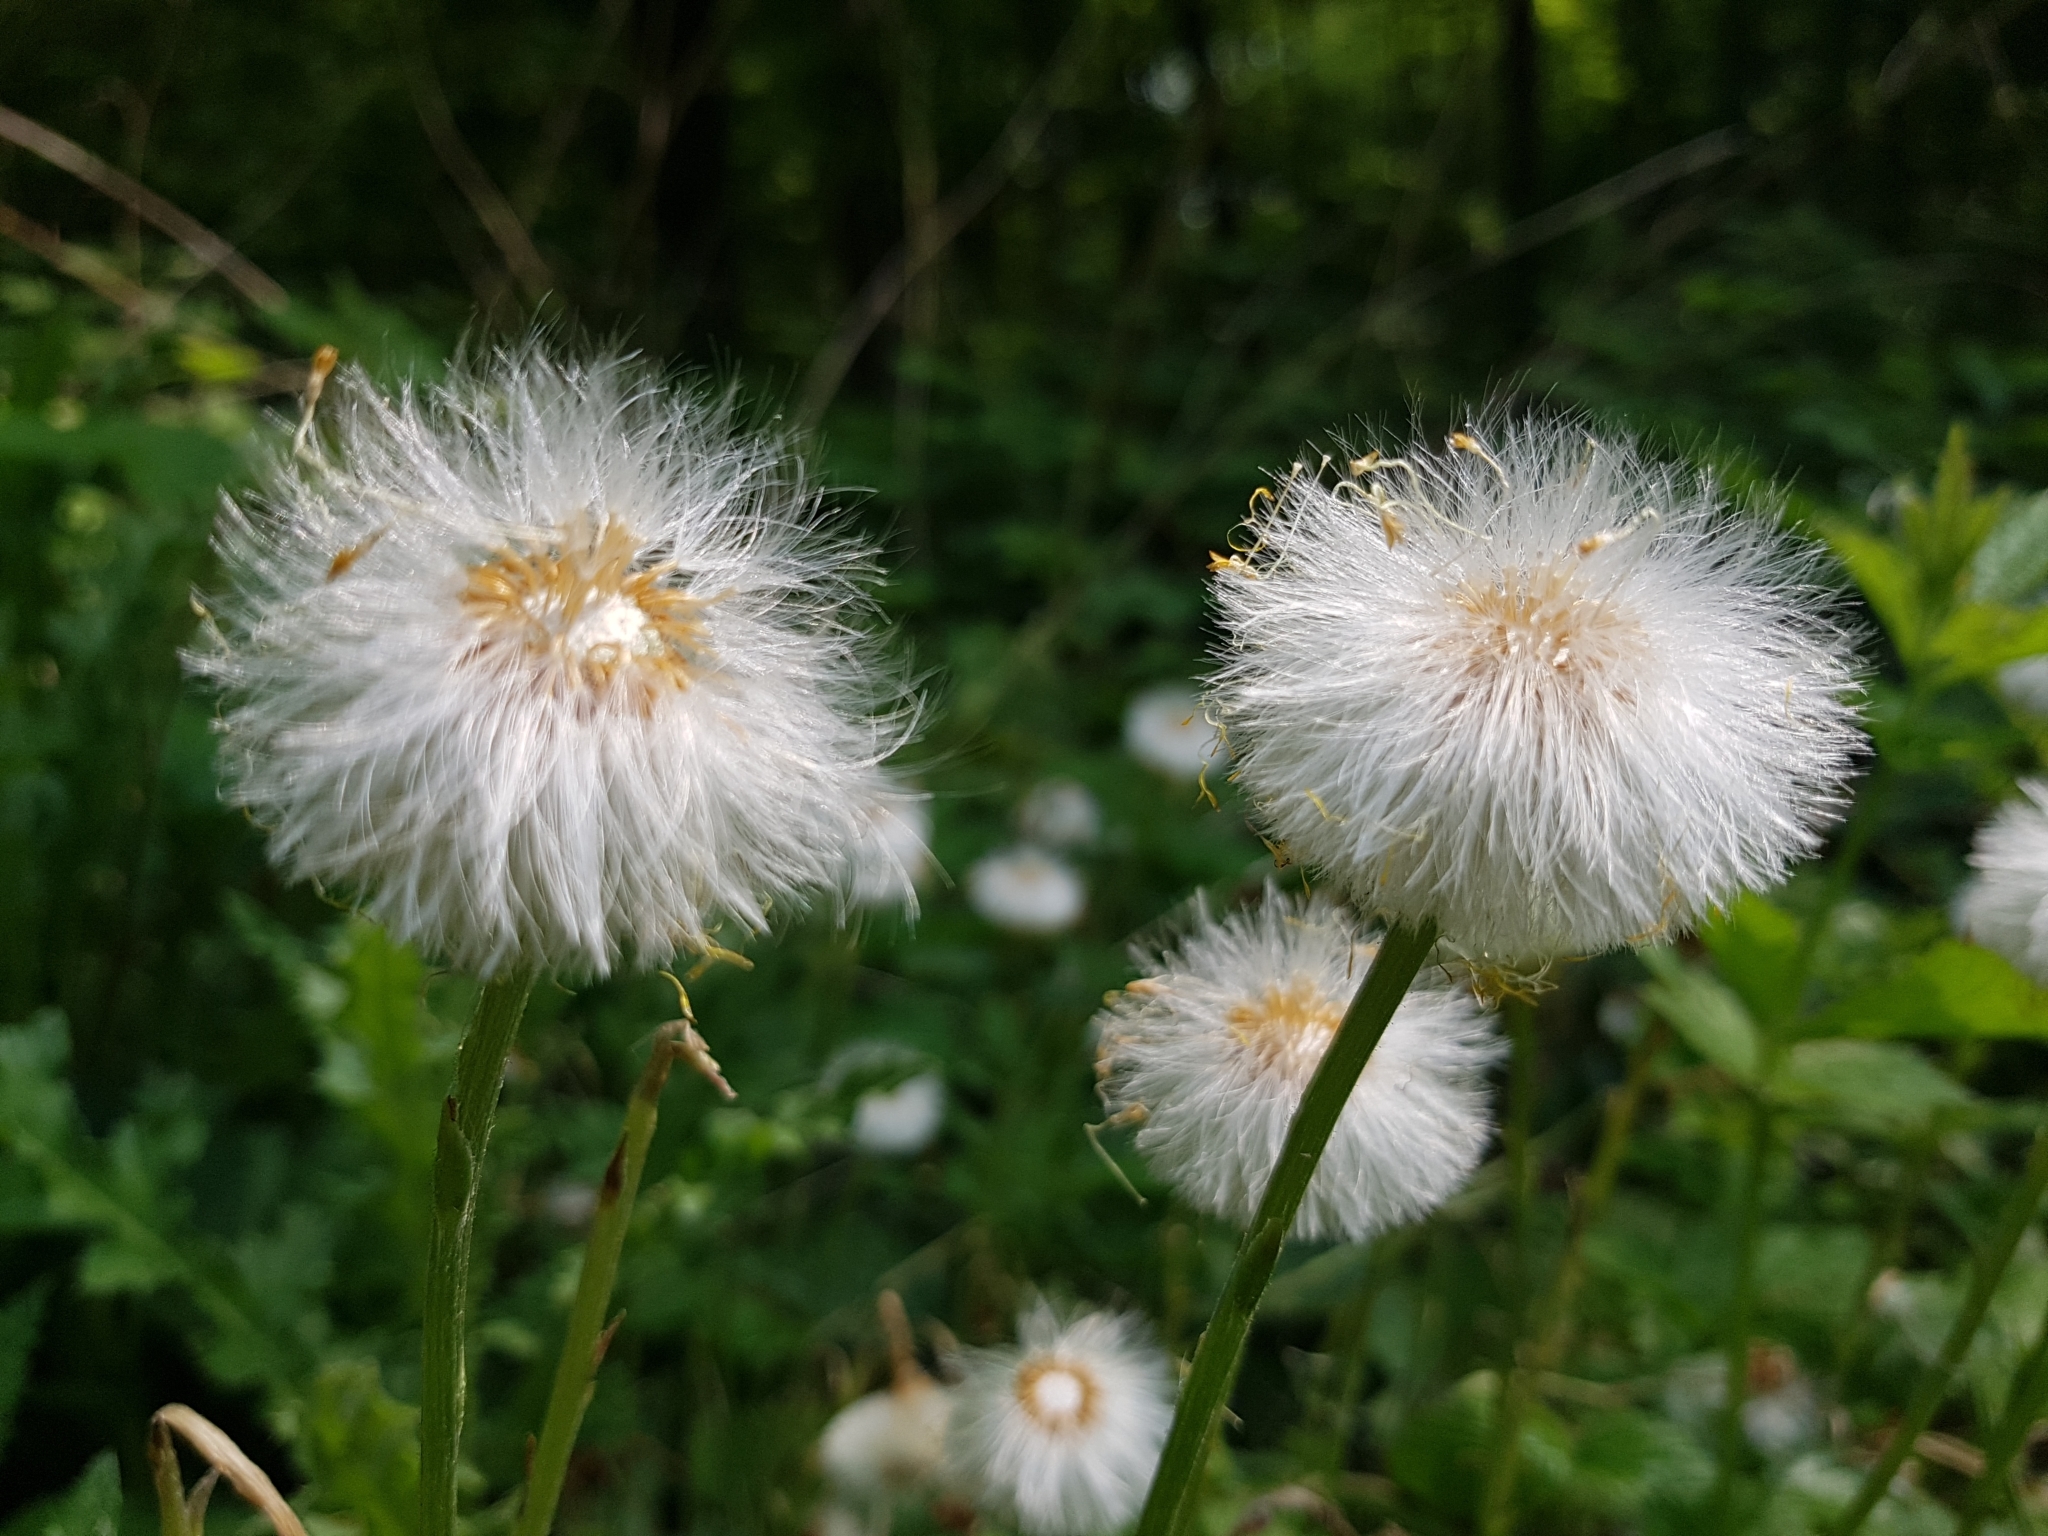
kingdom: Plantae
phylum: Tracheophyta
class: Magnoliopsida
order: Asterales
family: Asteraceae
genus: Tussilago
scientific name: Tussilago farfara
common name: Coltsfoot
